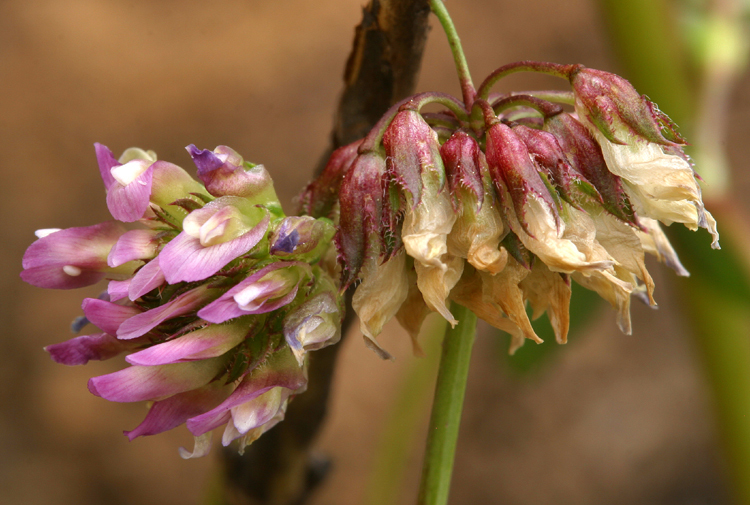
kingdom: Plantae
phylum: Tracheophyta
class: Magnoliopsida
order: Fabales
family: Fabaceae
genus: Trifolium
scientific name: Trifolium ciliolatum
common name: Foothill clover
